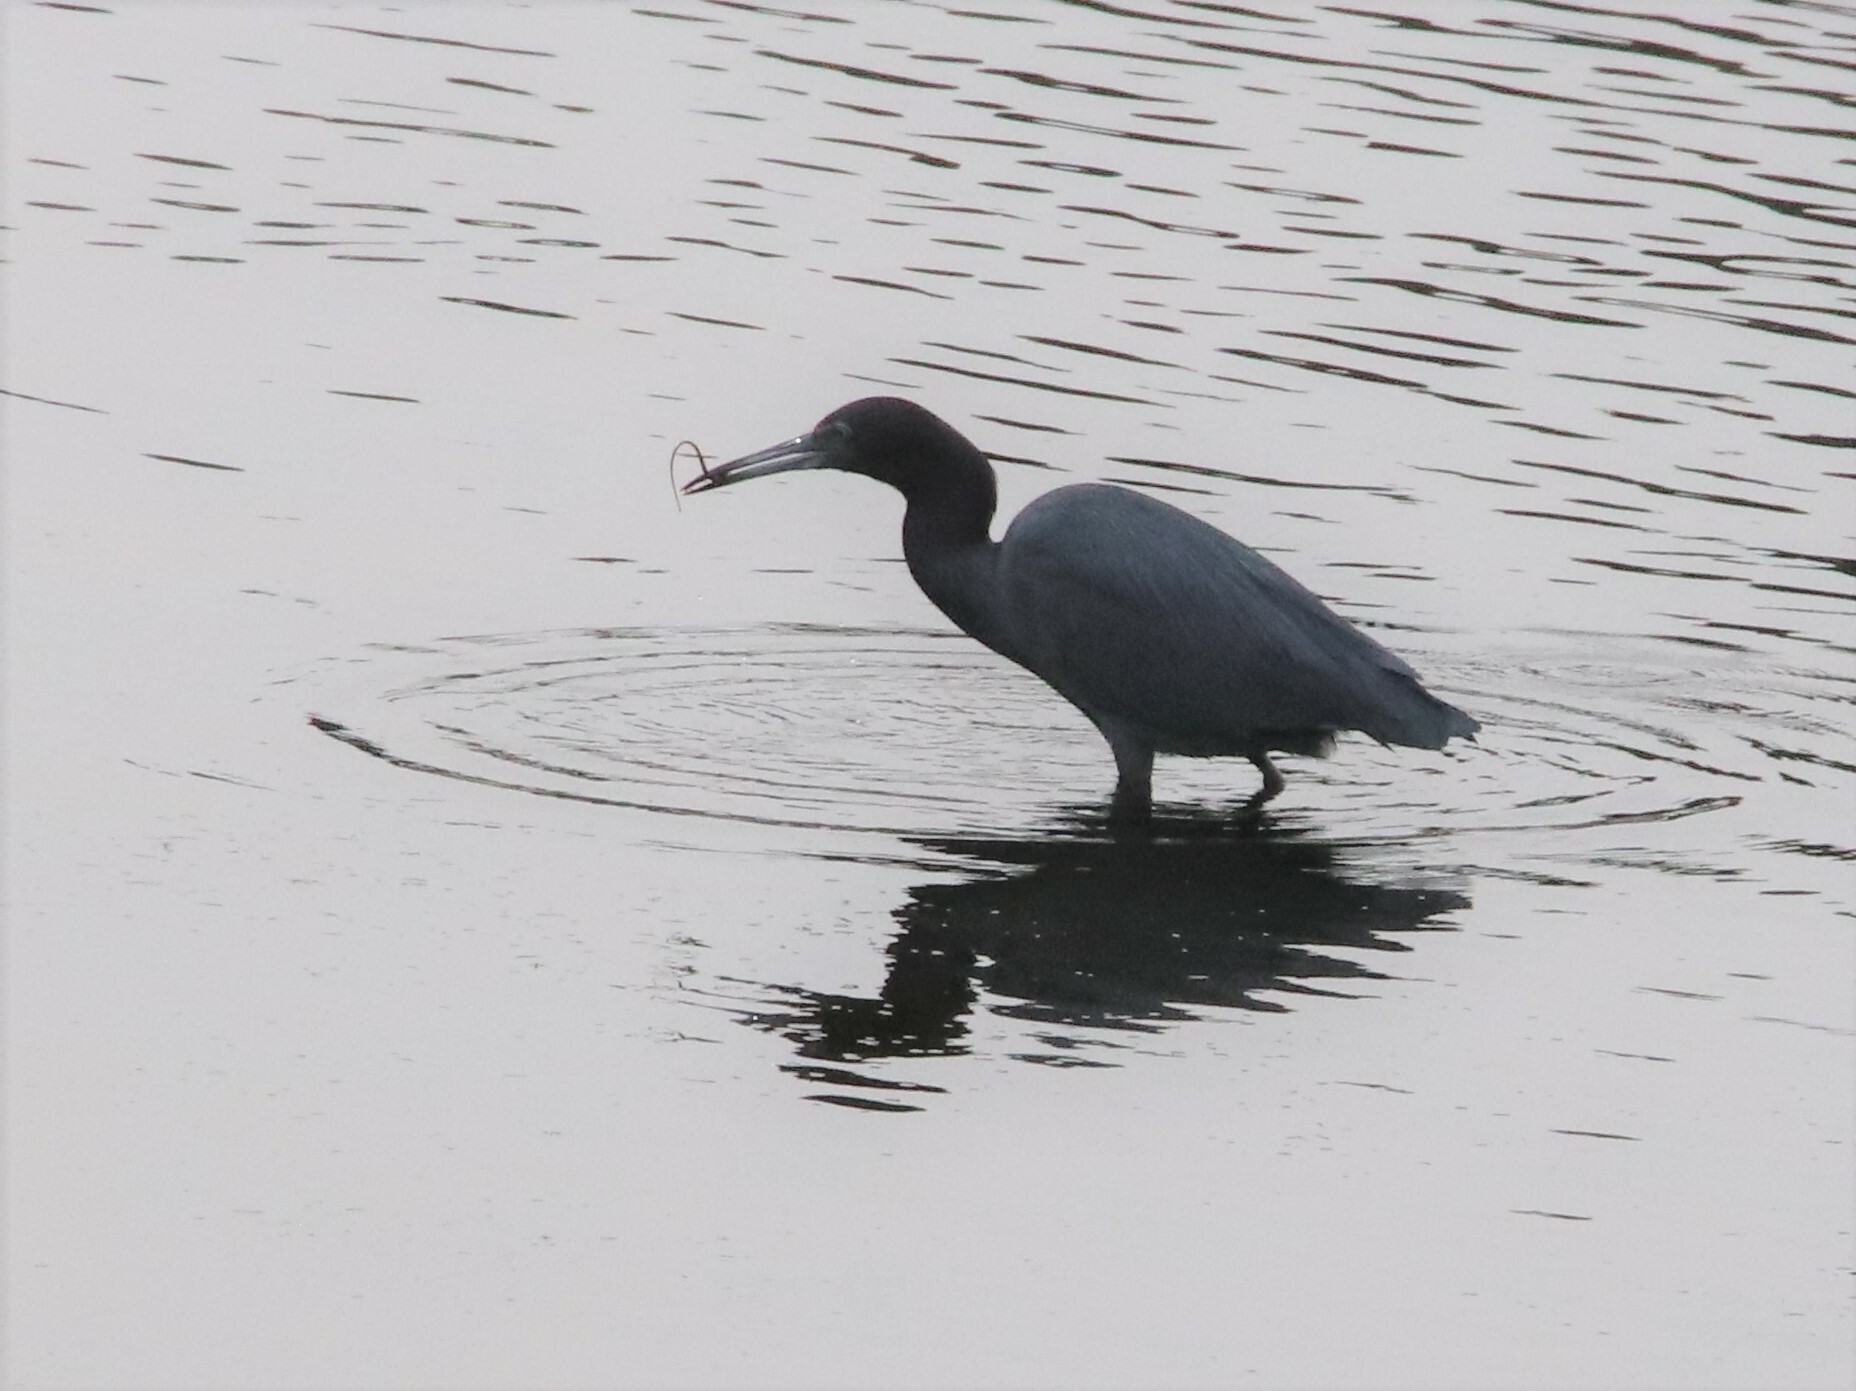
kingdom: Animalia
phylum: Chordata
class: Aves
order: Pelecaniformes
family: Ardeidae
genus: Egretta
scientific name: Egretta caerulea
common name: Little blue heron
